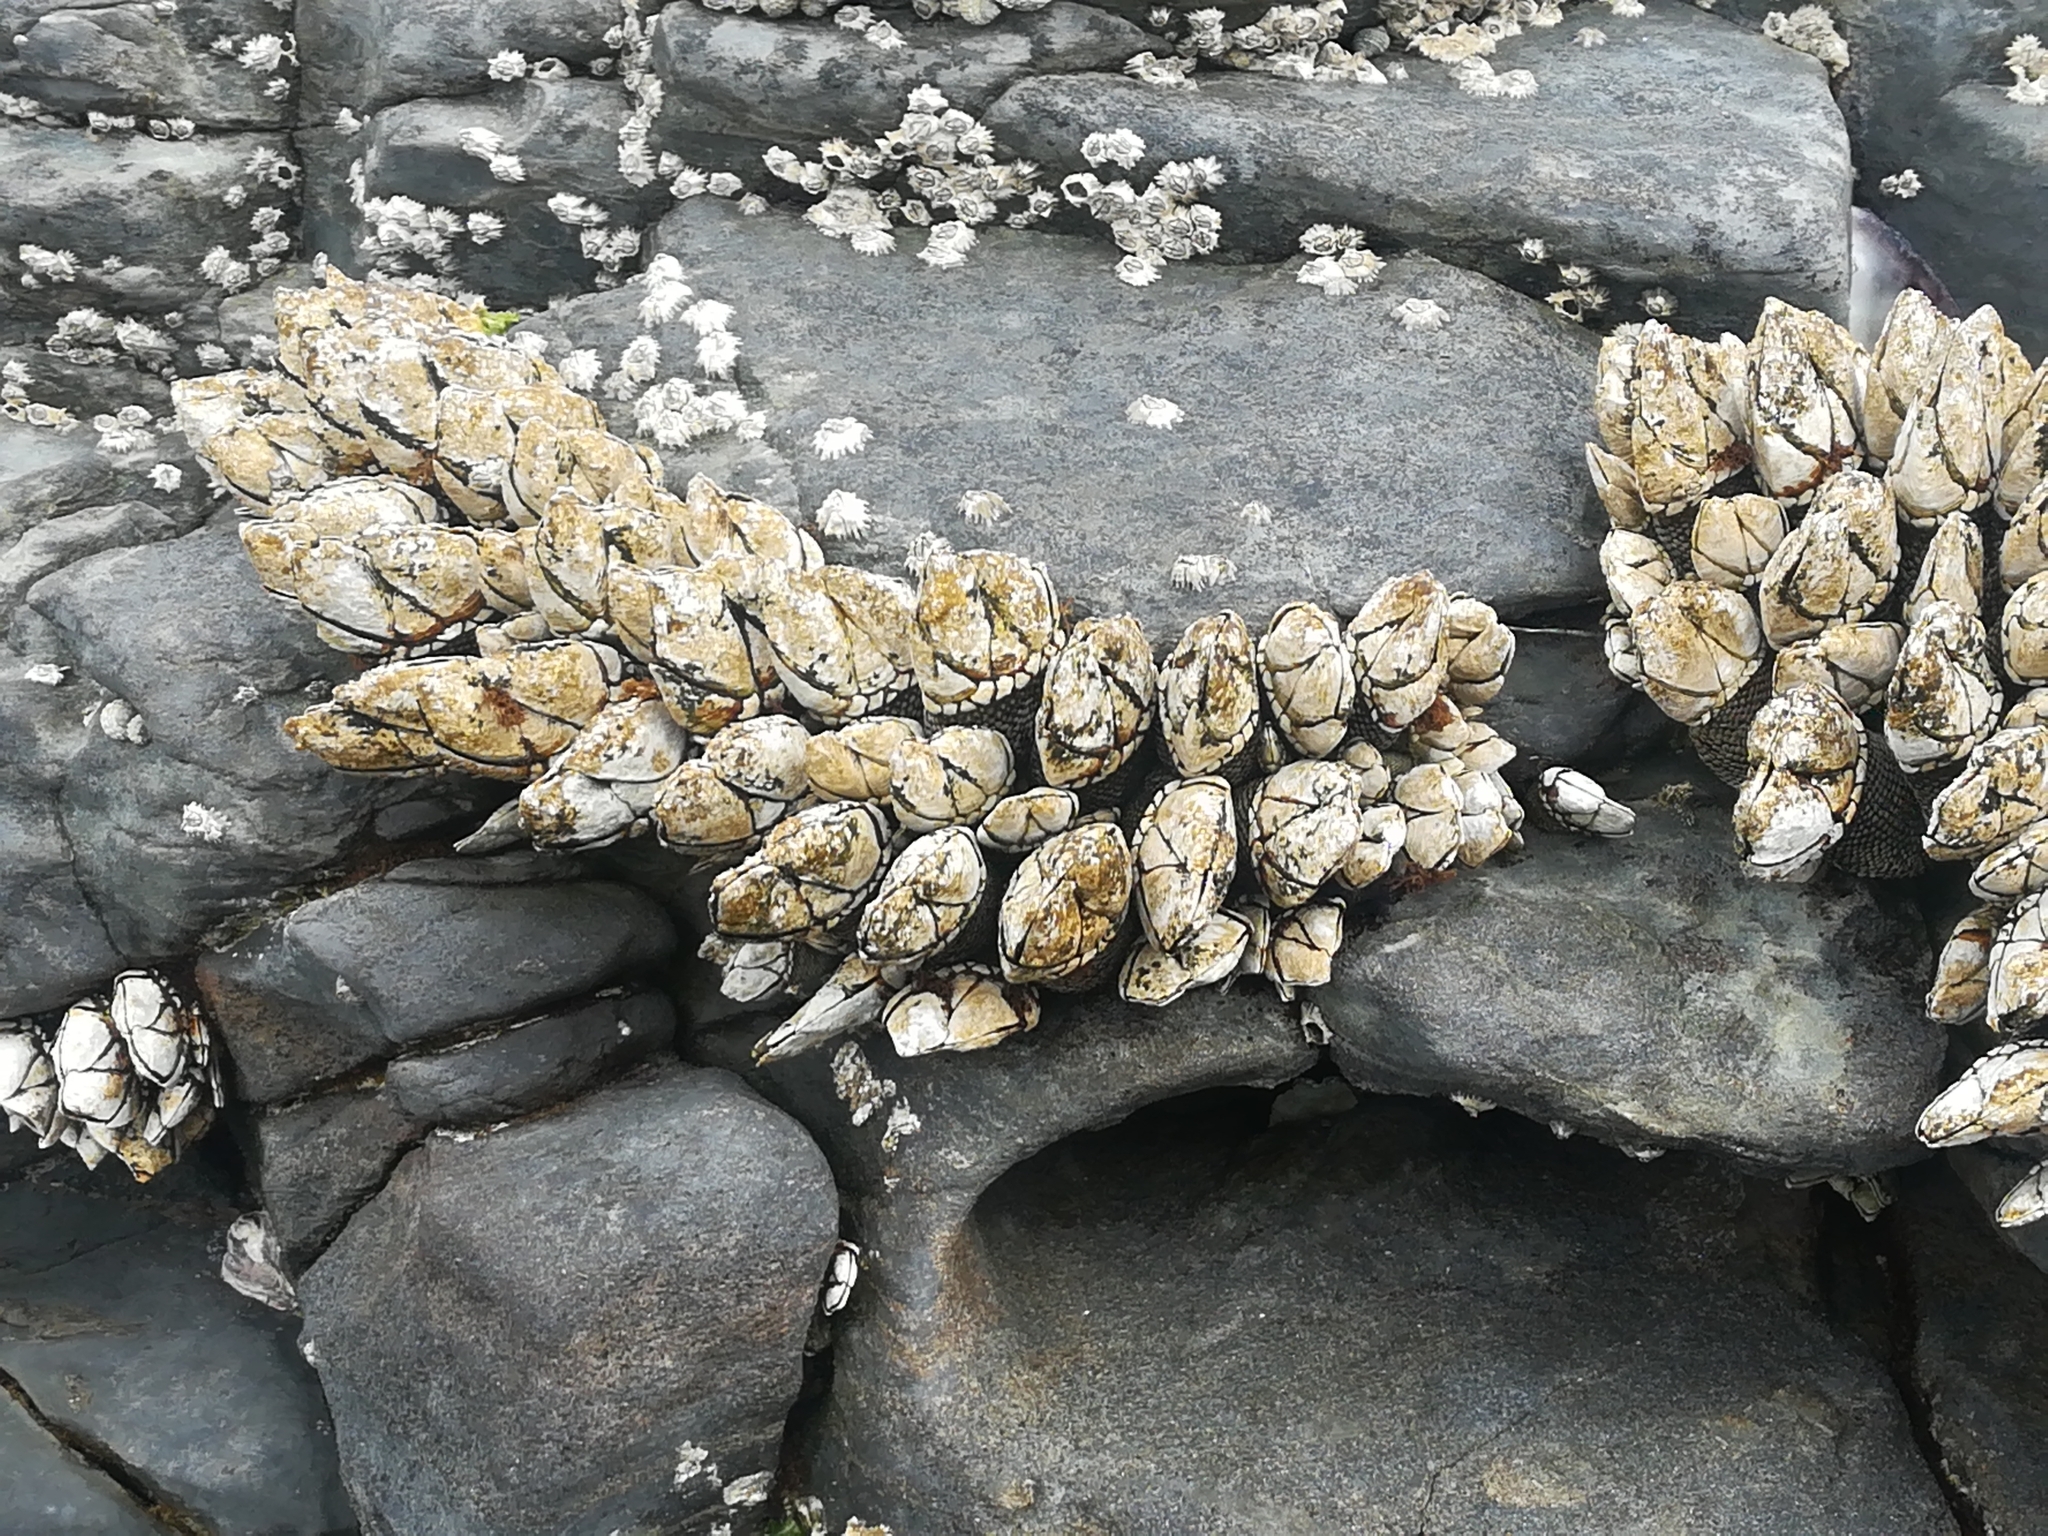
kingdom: Animalia
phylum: Arthropoda
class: Maxillopoda
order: Pedunculata
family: Pollicipedidae
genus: Capitulum
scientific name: Capitulum mitella
